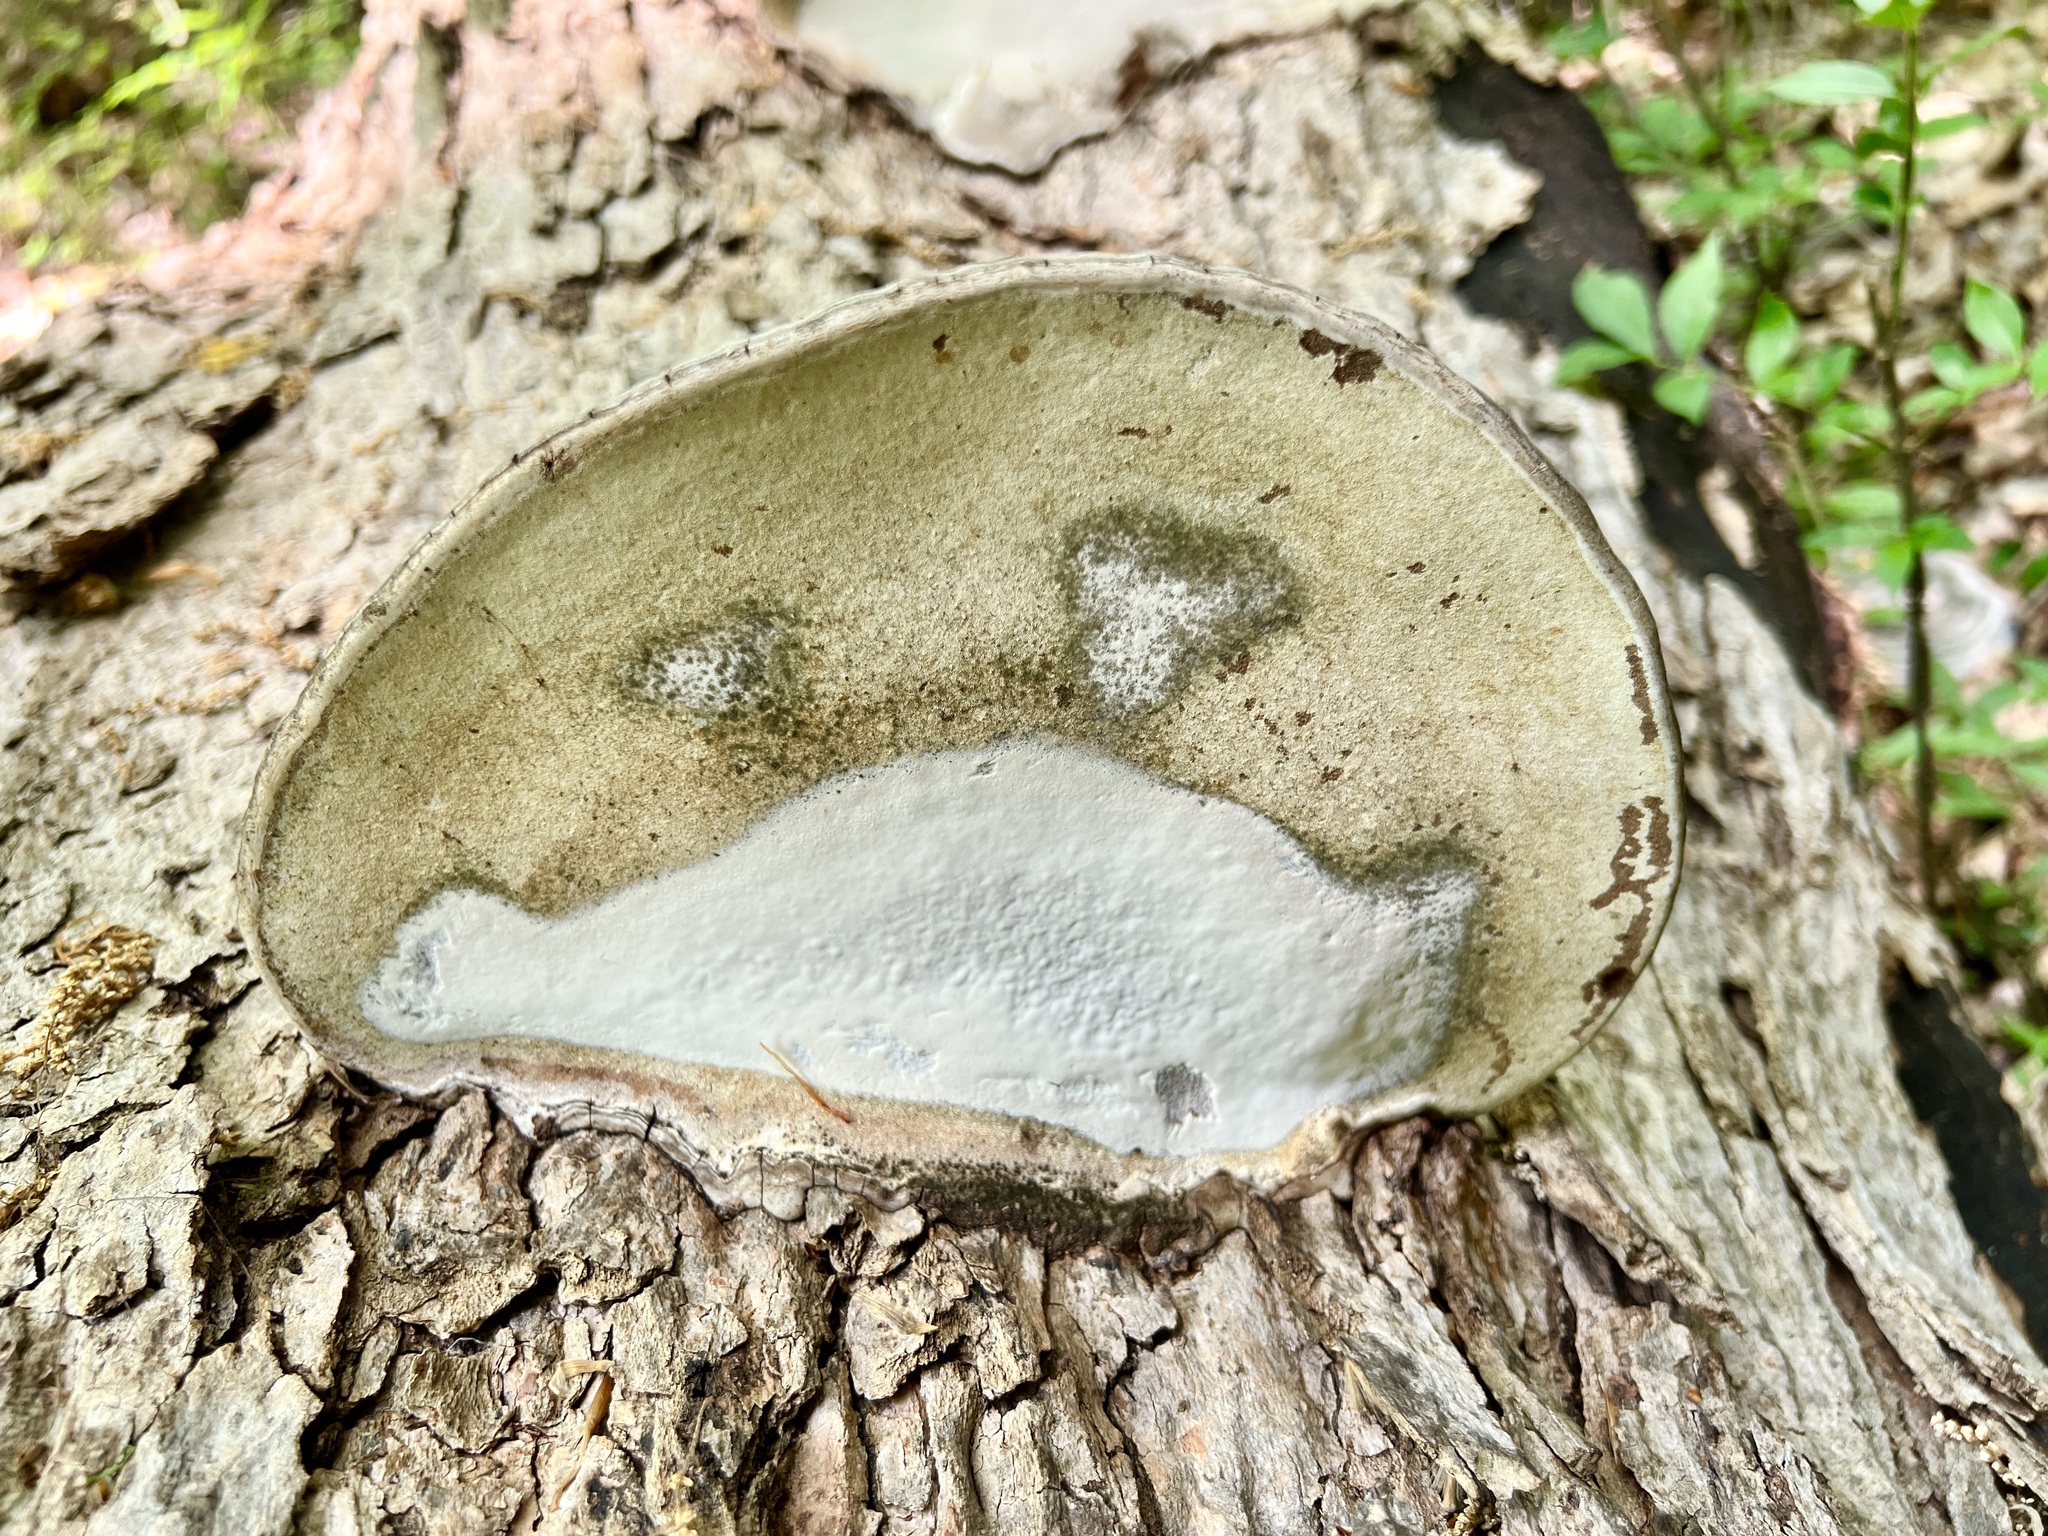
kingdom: Fungi
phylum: Basidiomycota
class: Agaricomycetes
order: Polyporales
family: Polyporaceae
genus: Ganoderma
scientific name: Ganoderma applanatum
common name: Artist's bracket
